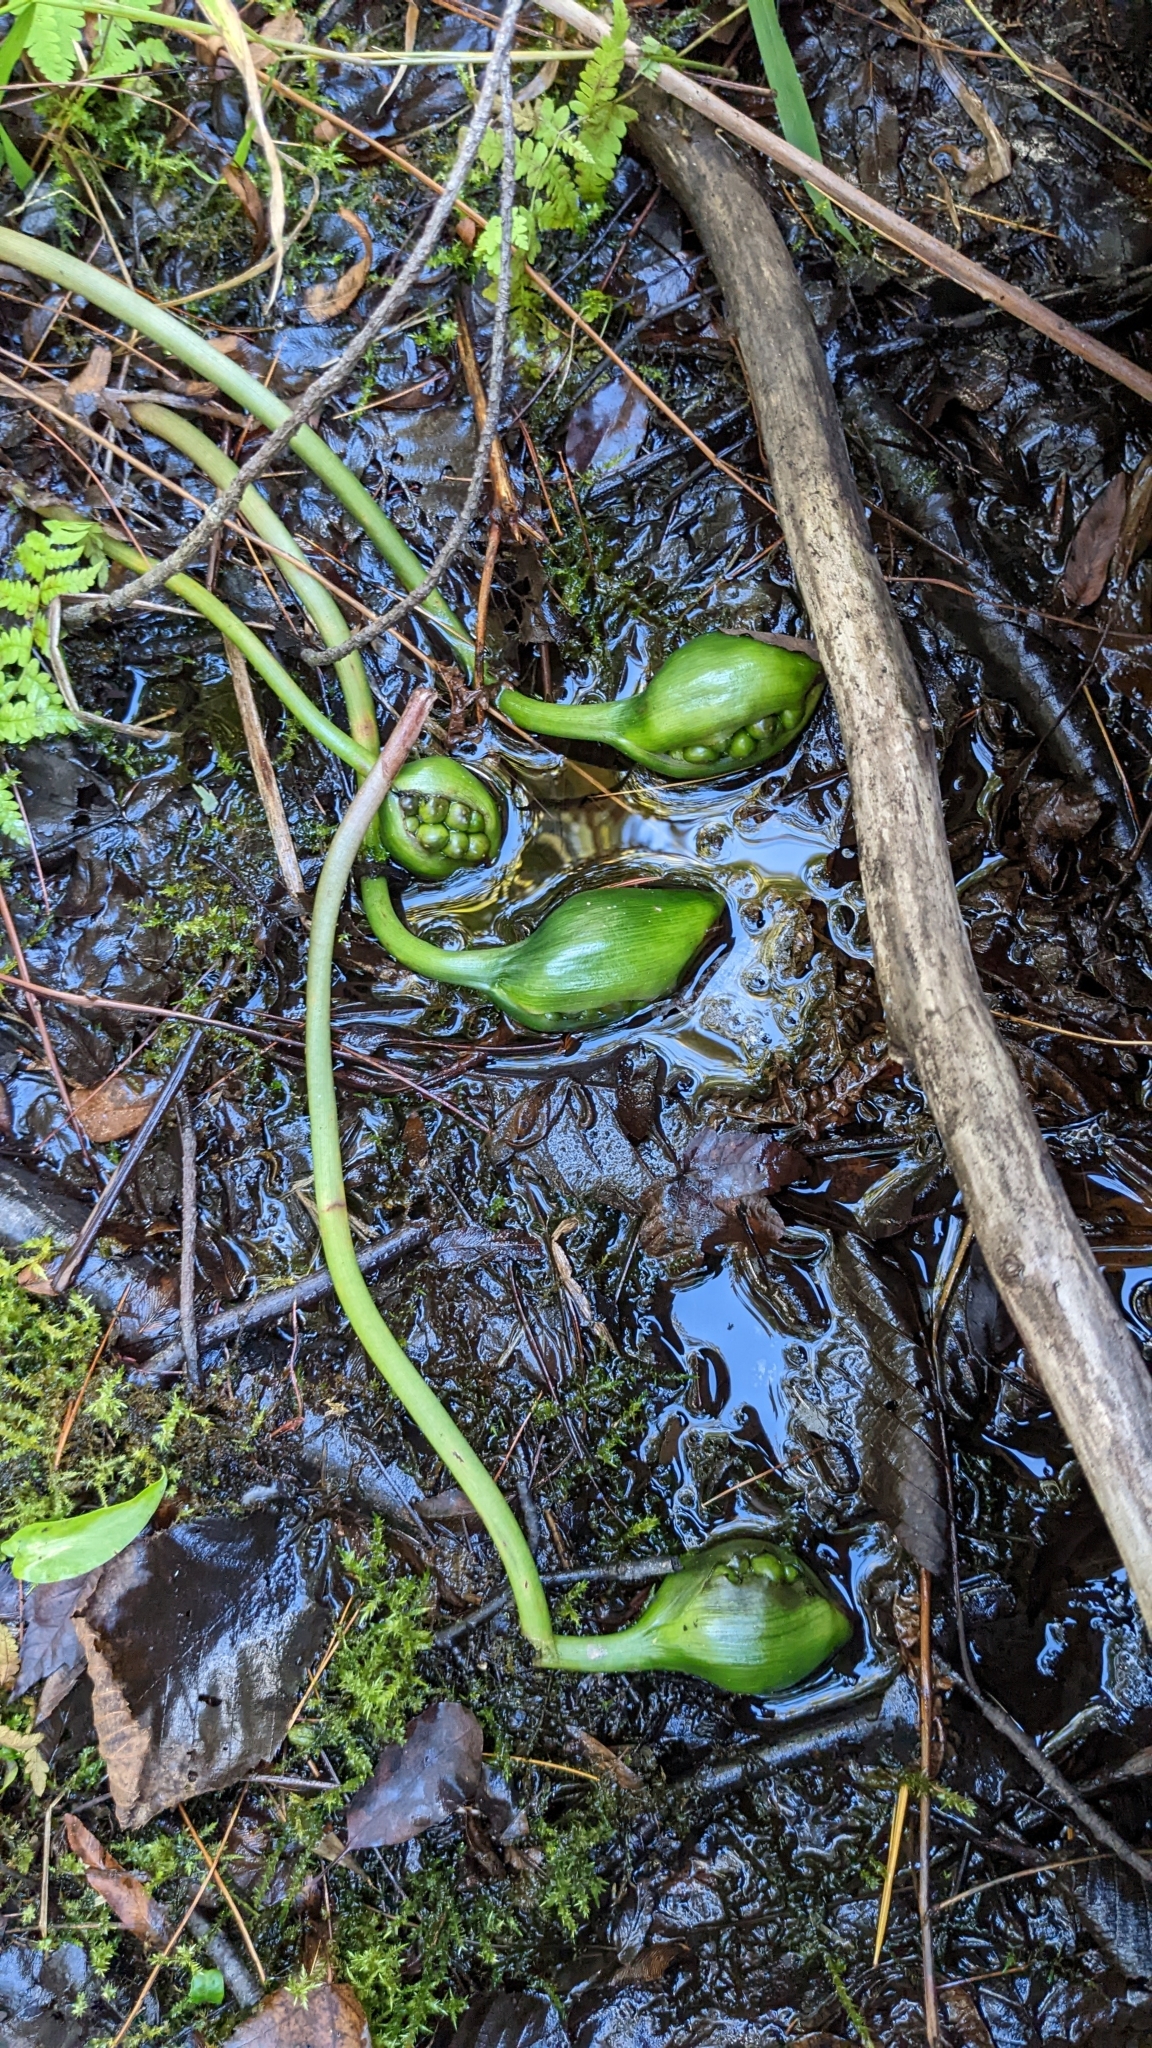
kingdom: Plantae
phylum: Tracheophyta
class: Liliopsida
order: Alismatales
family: Araceae
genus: Peltandra
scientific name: Peltandra virginica
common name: Arrow arum
